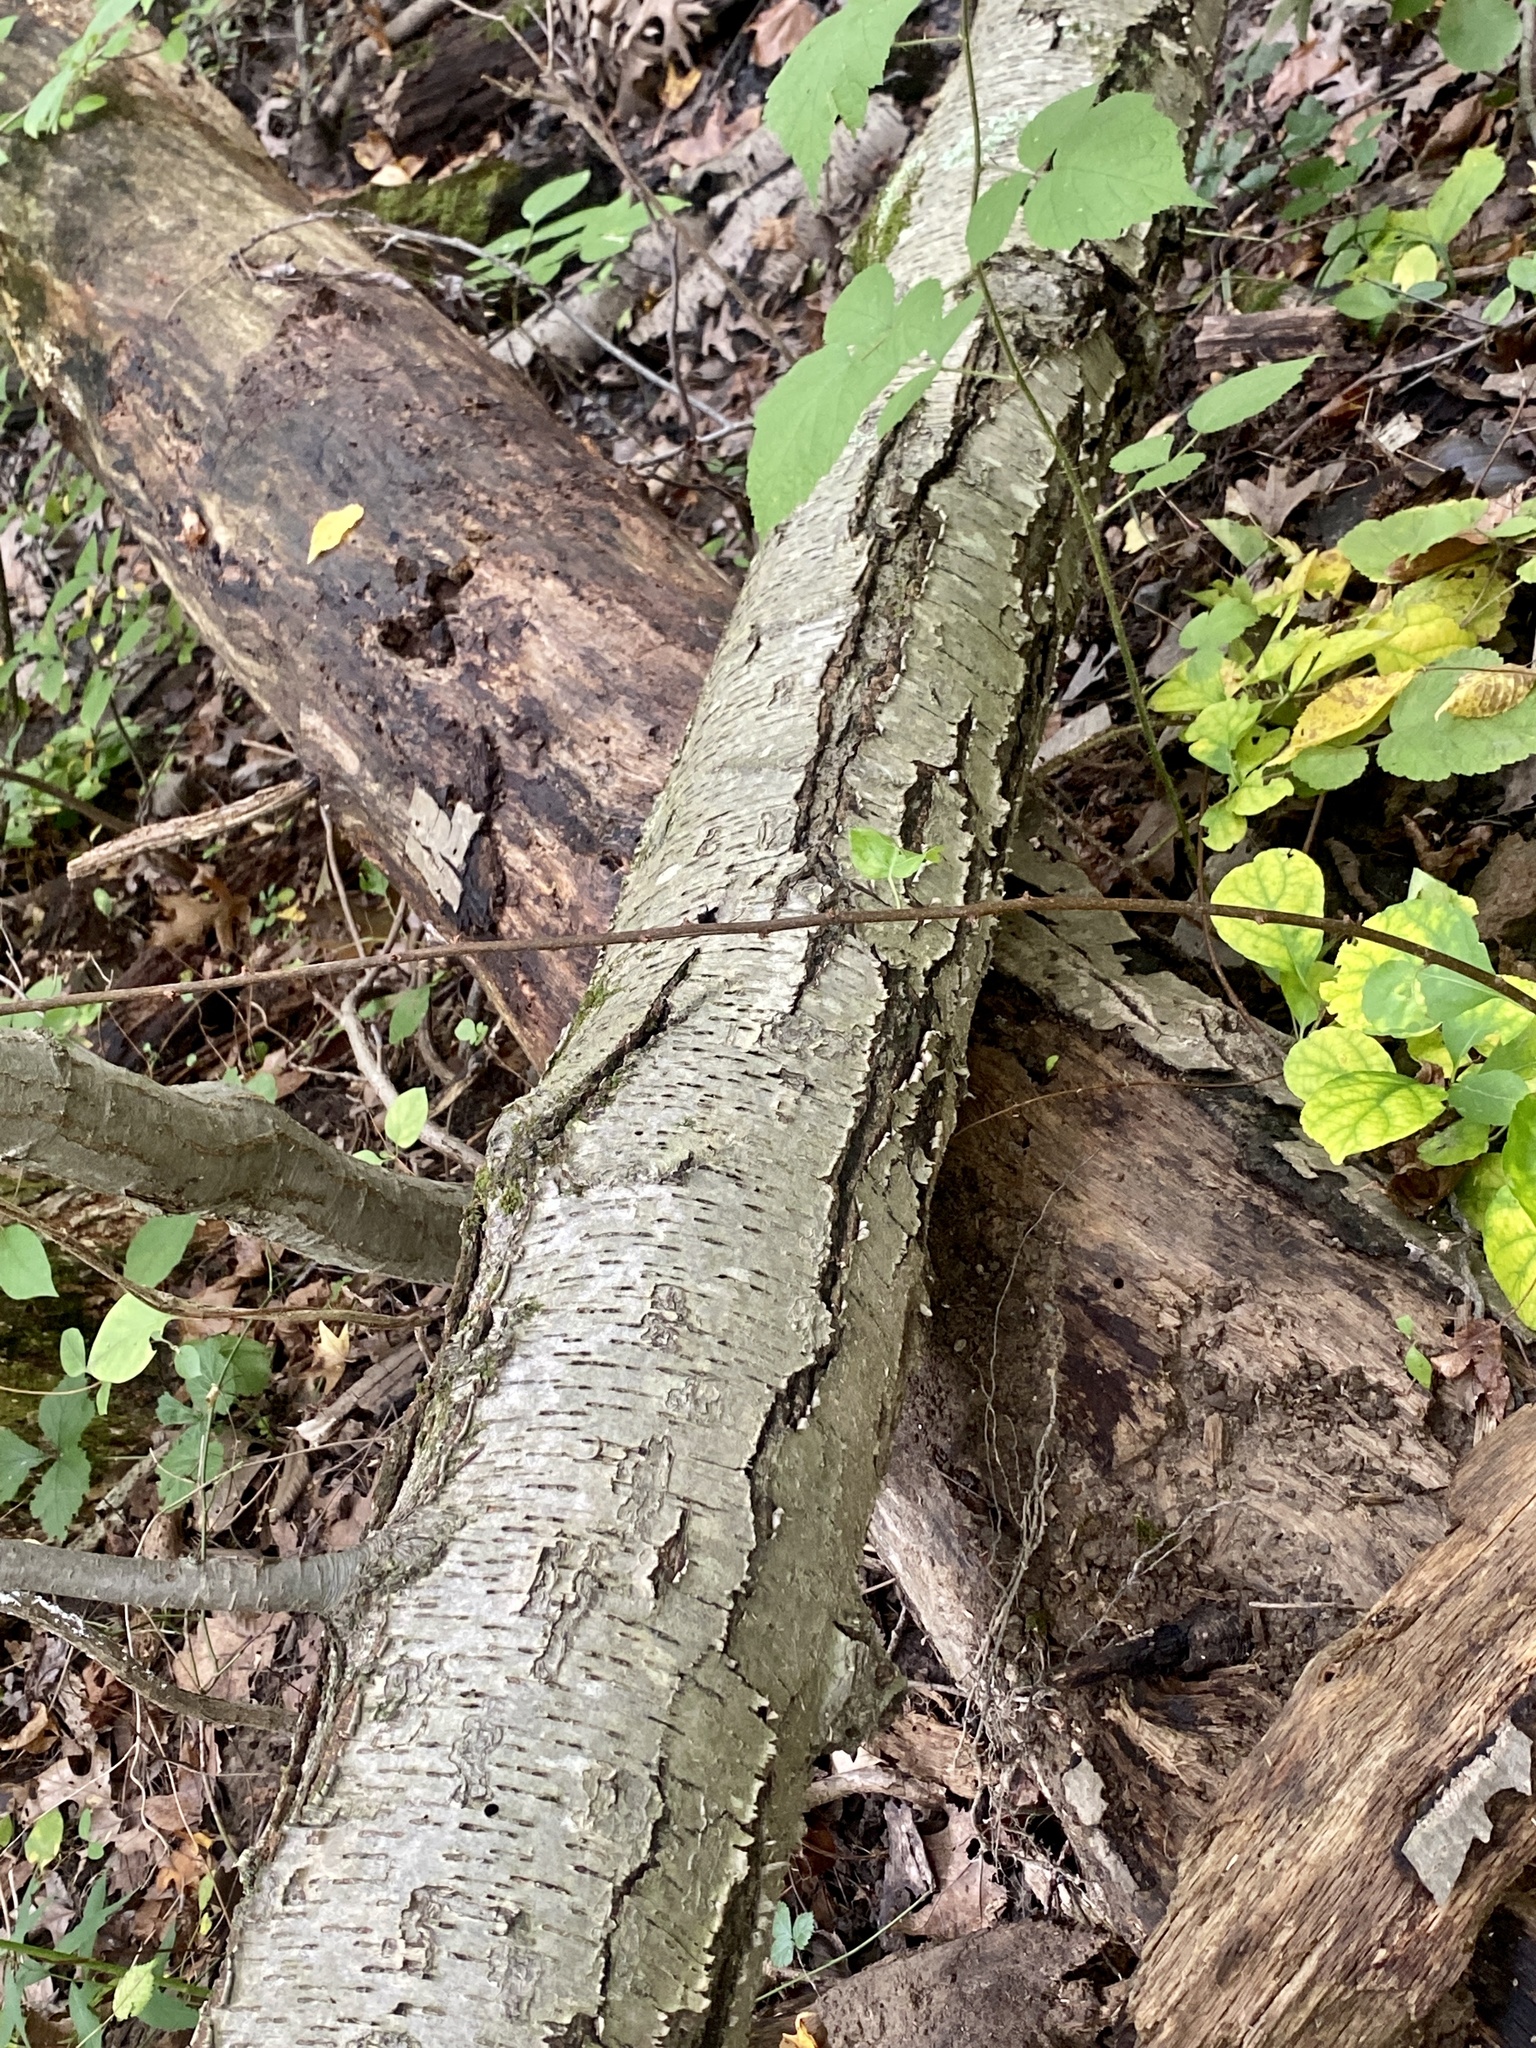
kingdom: Plantae
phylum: Tracheophyta
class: Magnoliopsida
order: Fagales
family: Betulaceae
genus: Betula
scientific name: Betula lenta
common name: Black birch
